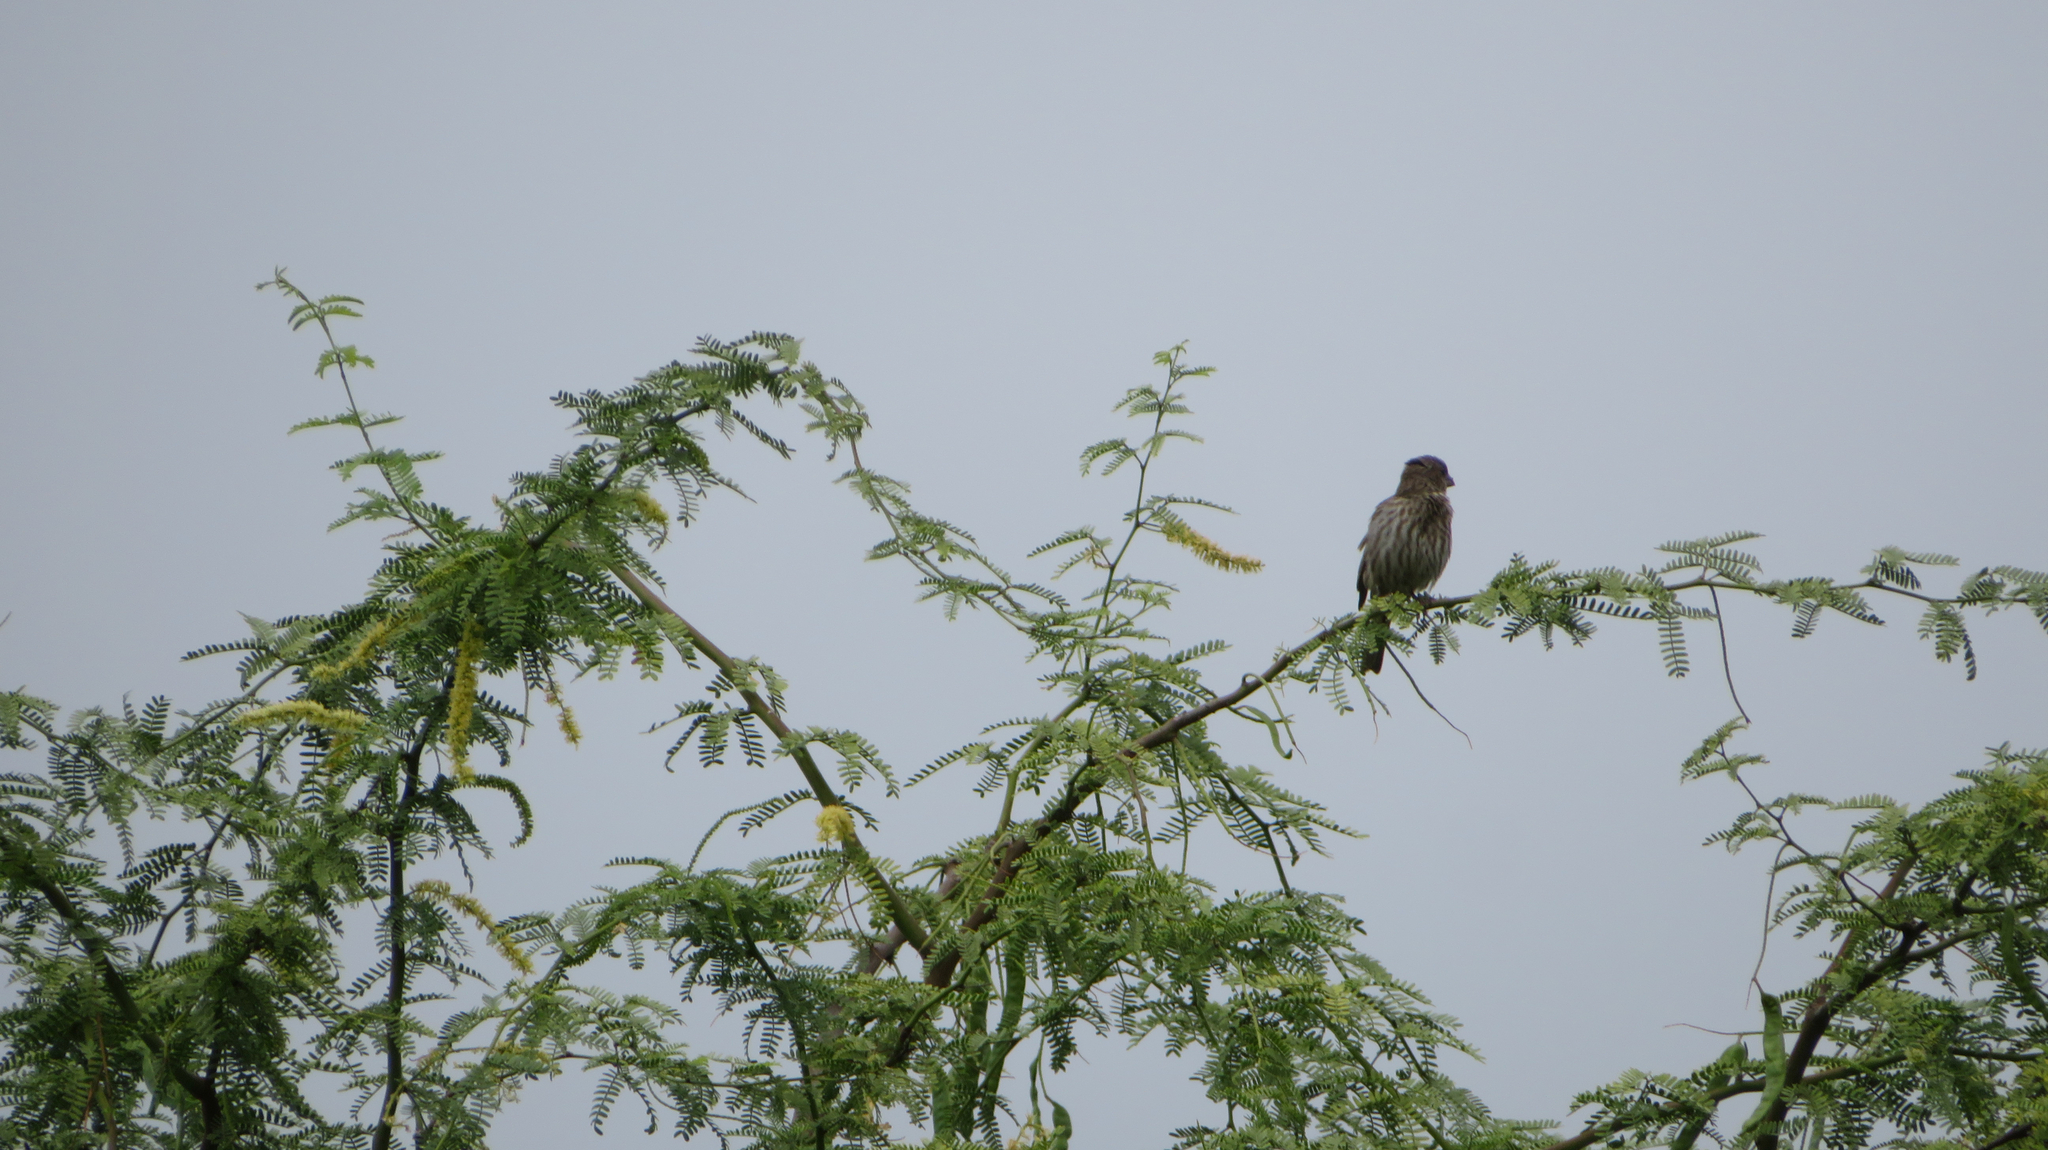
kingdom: Animalia
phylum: Chordata
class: Aves
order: Passeriformes
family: Fringillidae
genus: Haemorhous
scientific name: Haemorhous mexicanus
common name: House finch
